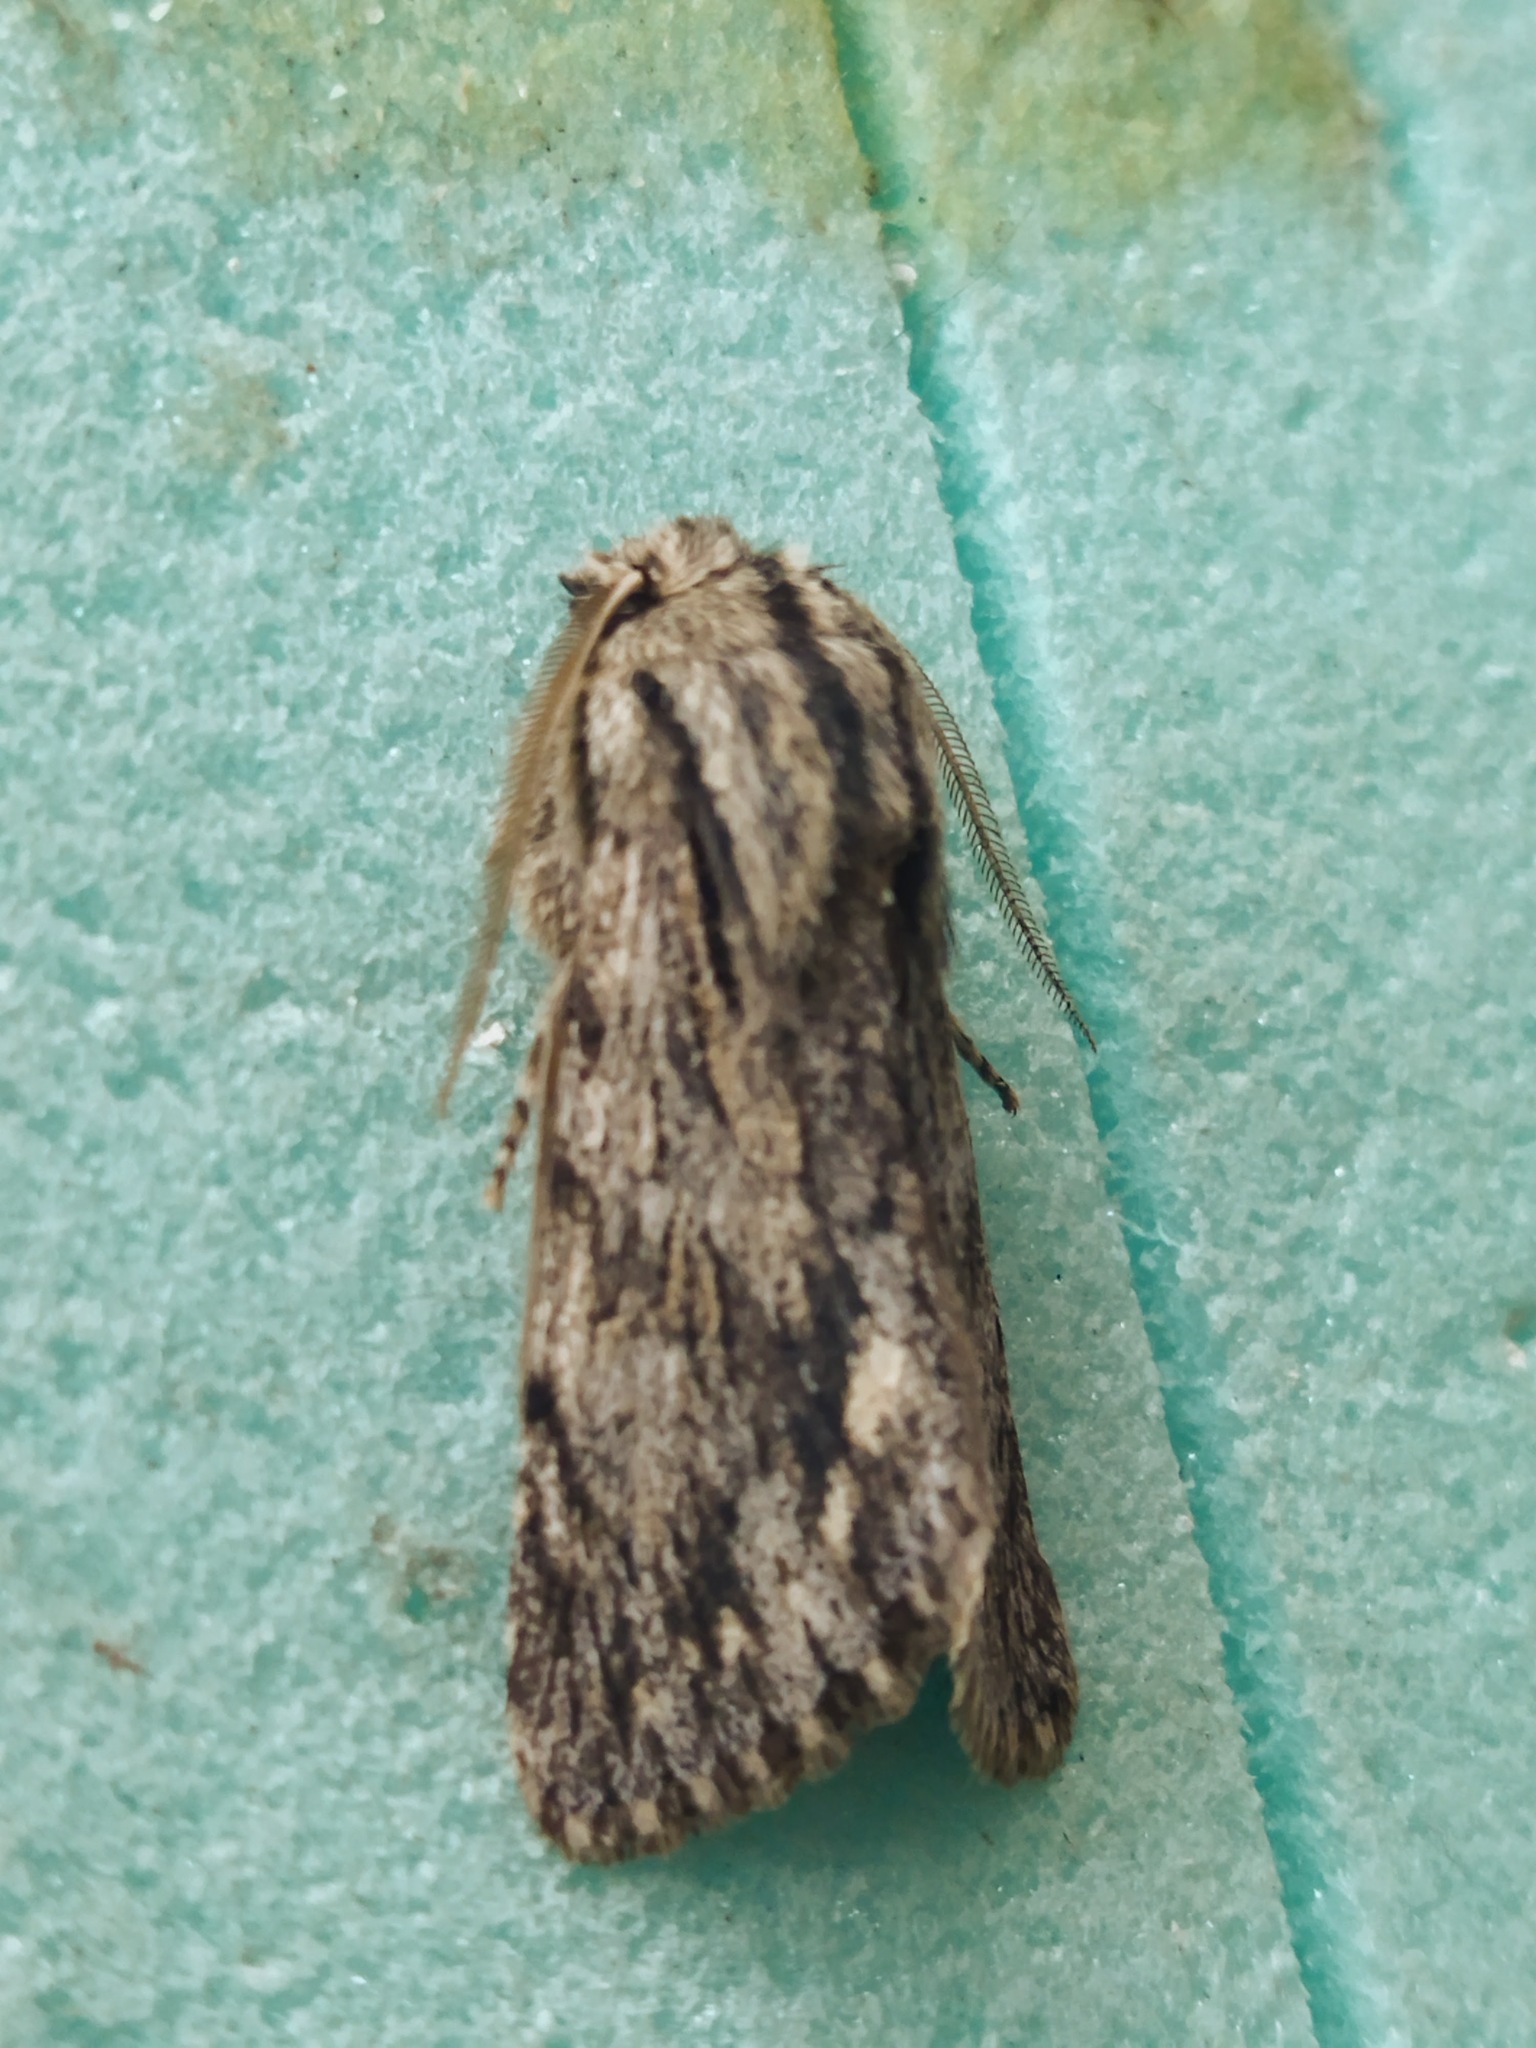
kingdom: Animalia
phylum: Arthropoda
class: Insecta
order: Lepidoptera
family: Noctuidae
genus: Asteroscopus
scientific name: Asteroscopus sphinx
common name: The sprawler
